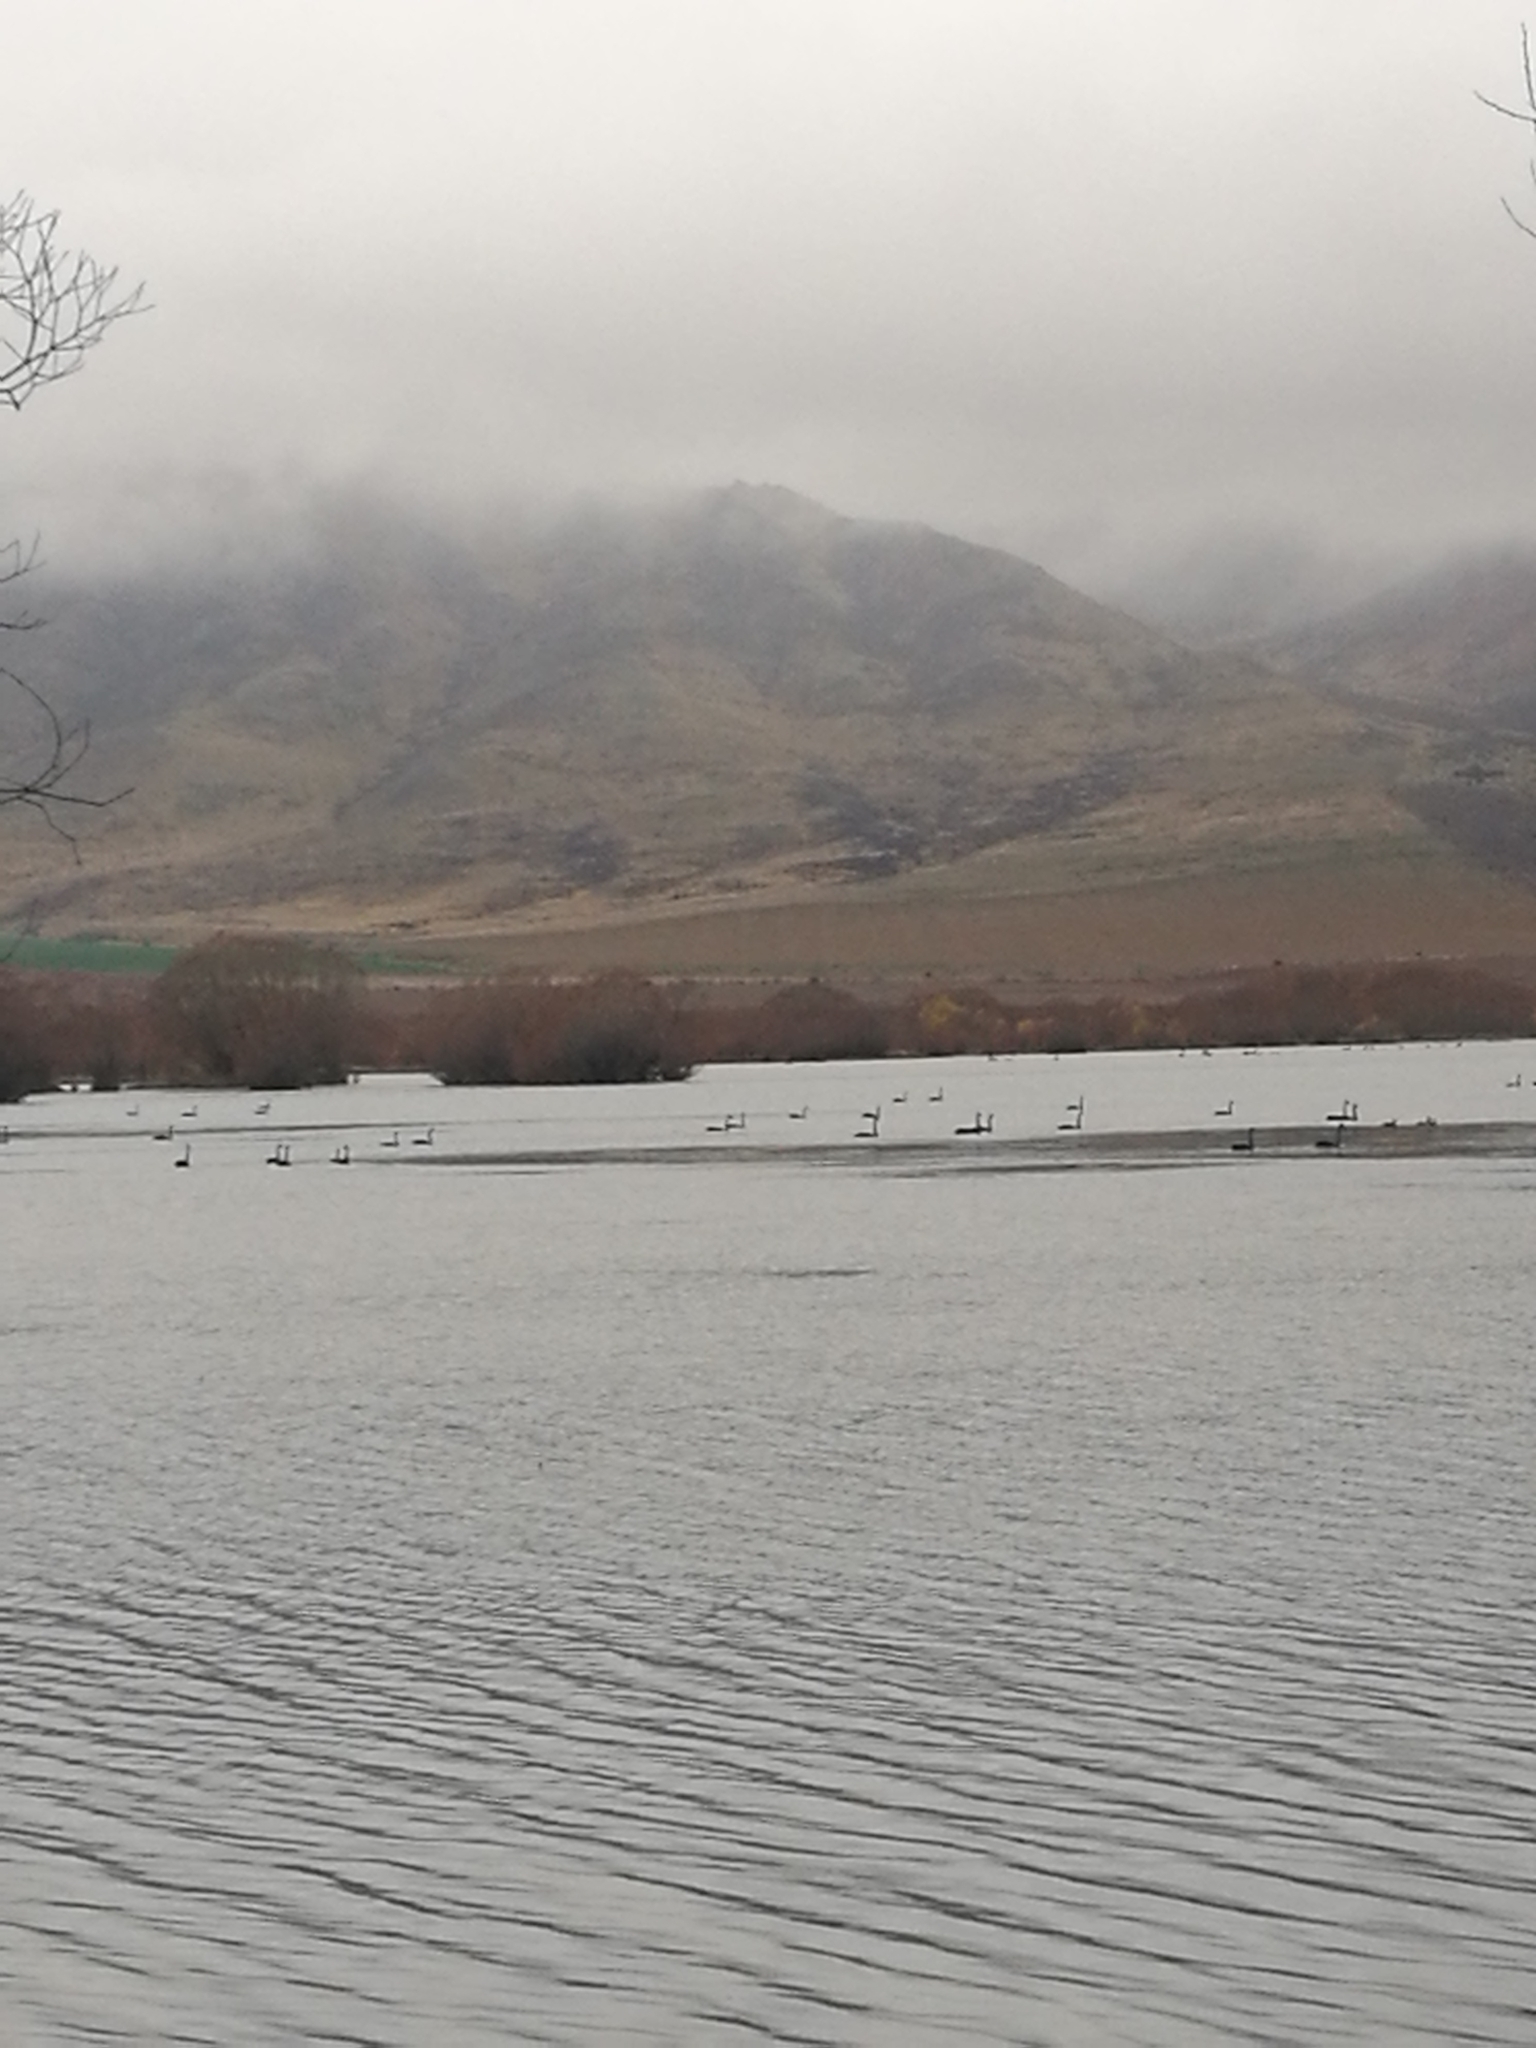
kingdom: Animalia
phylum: Chordata
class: Aves
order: Anseriformes
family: Anatidae
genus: Cygnus
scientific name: Cygnus atratus
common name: Black swan
